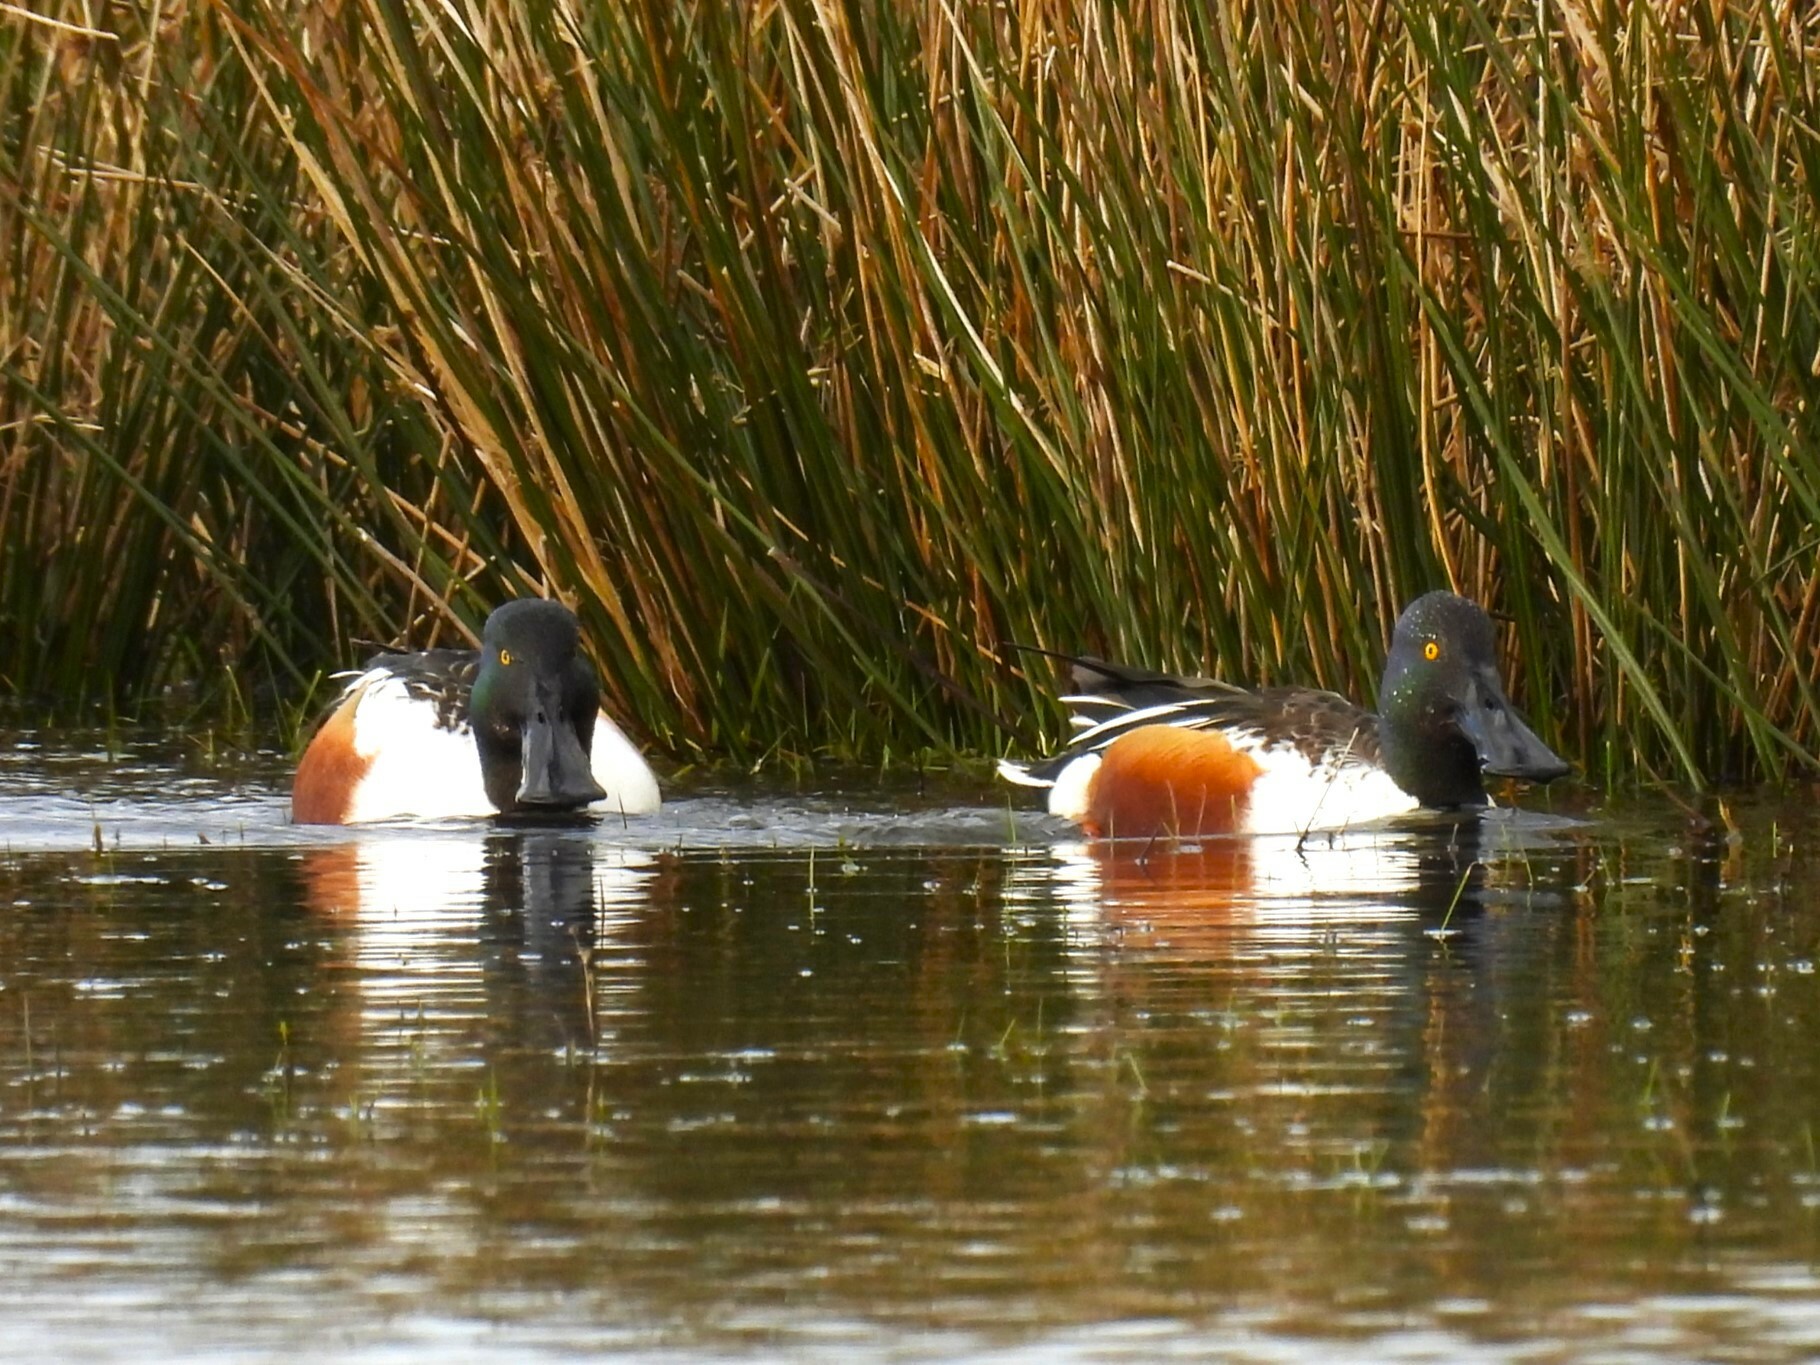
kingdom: Animalia
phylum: Chordata
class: Aves
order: Anseriformes
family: Anatidae
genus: Spatula
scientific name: Spatula clypeata
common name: Northern shoveler
